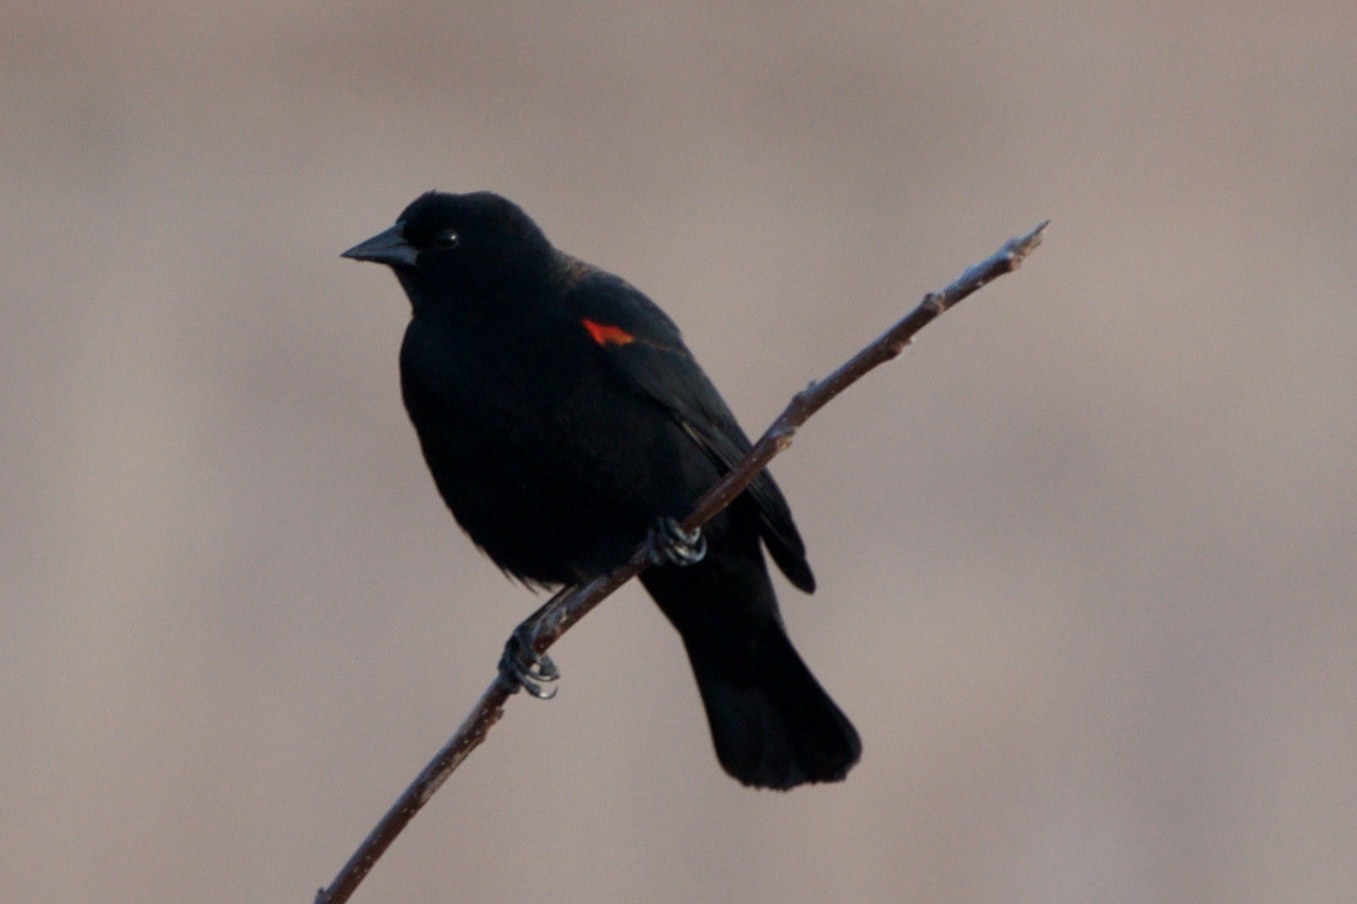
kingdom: Animalia
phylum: Chordata
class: Aves
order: Passeriformes
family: Icteridae
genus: Agelaius
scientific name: Agelaius phoeniceus
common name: Red-winged blackbird
